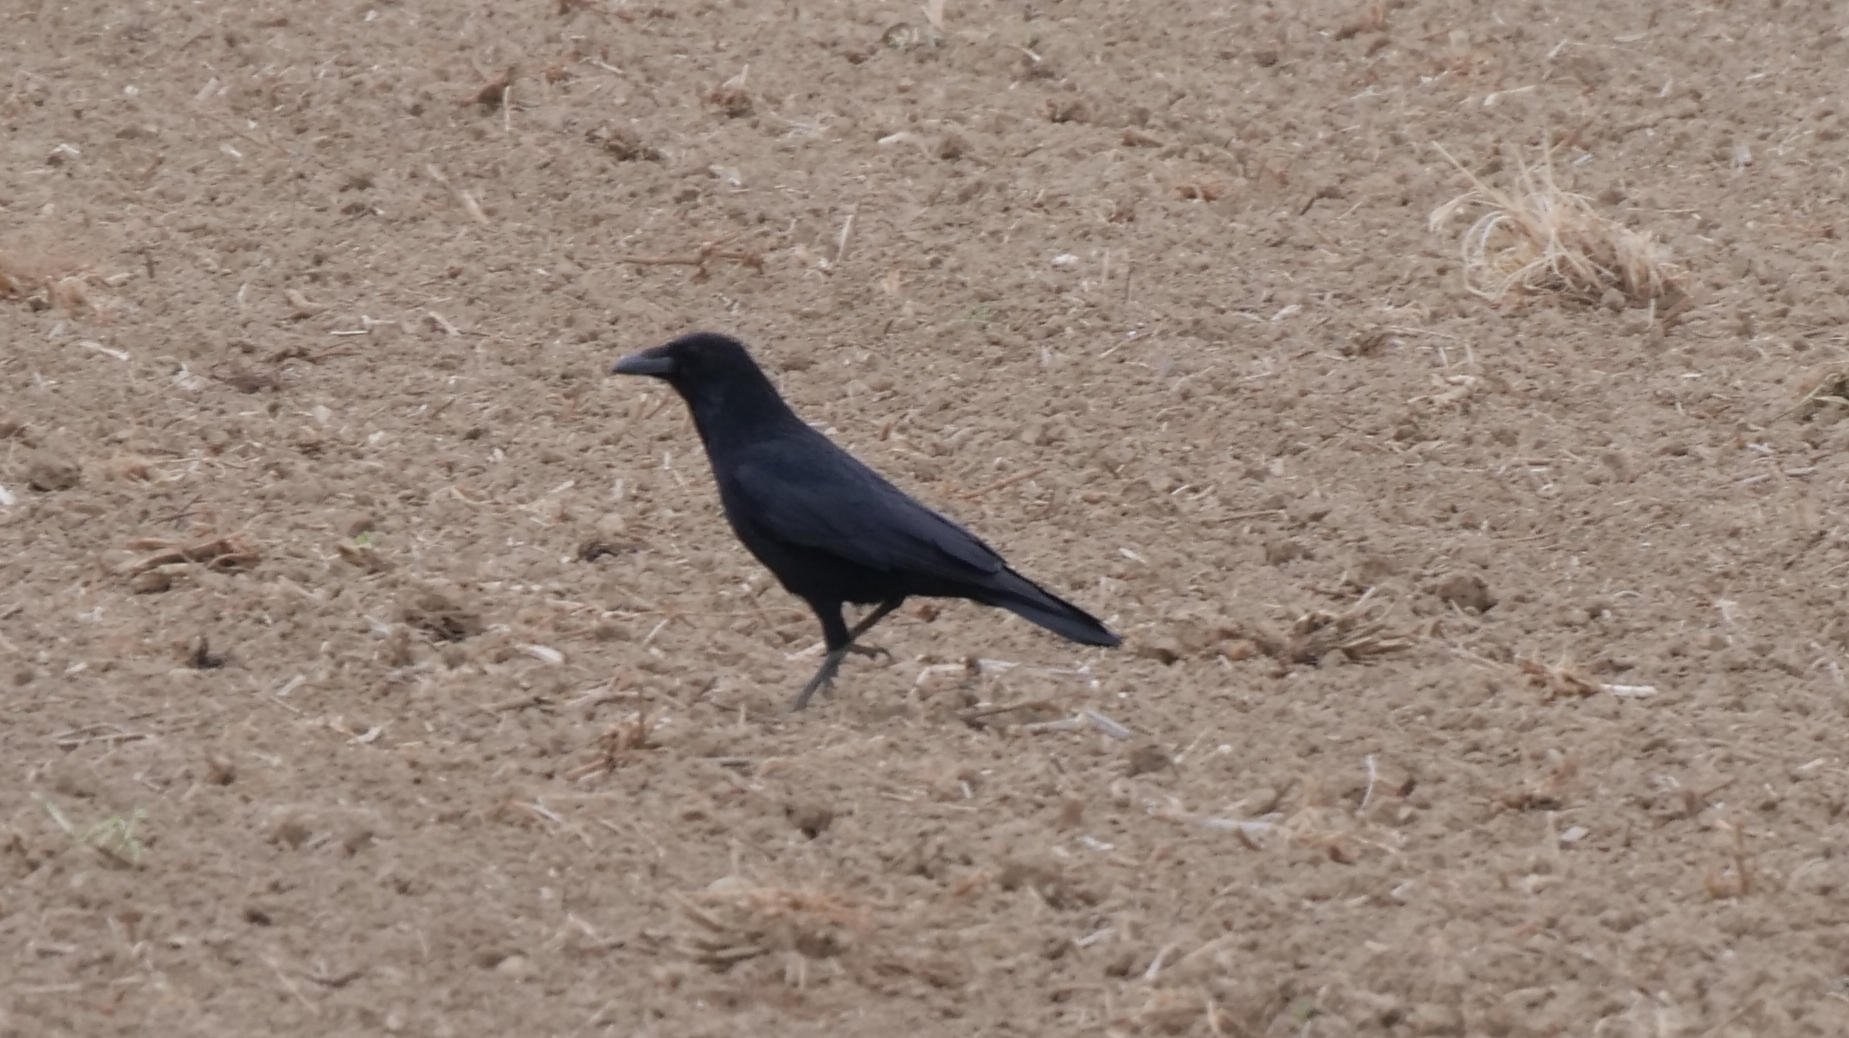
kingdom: Animalia
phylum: Chordata
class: Aves
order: Passeriformes
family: Corvidae
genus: Corvus
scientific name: Corvus corone
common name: Carrion crow
